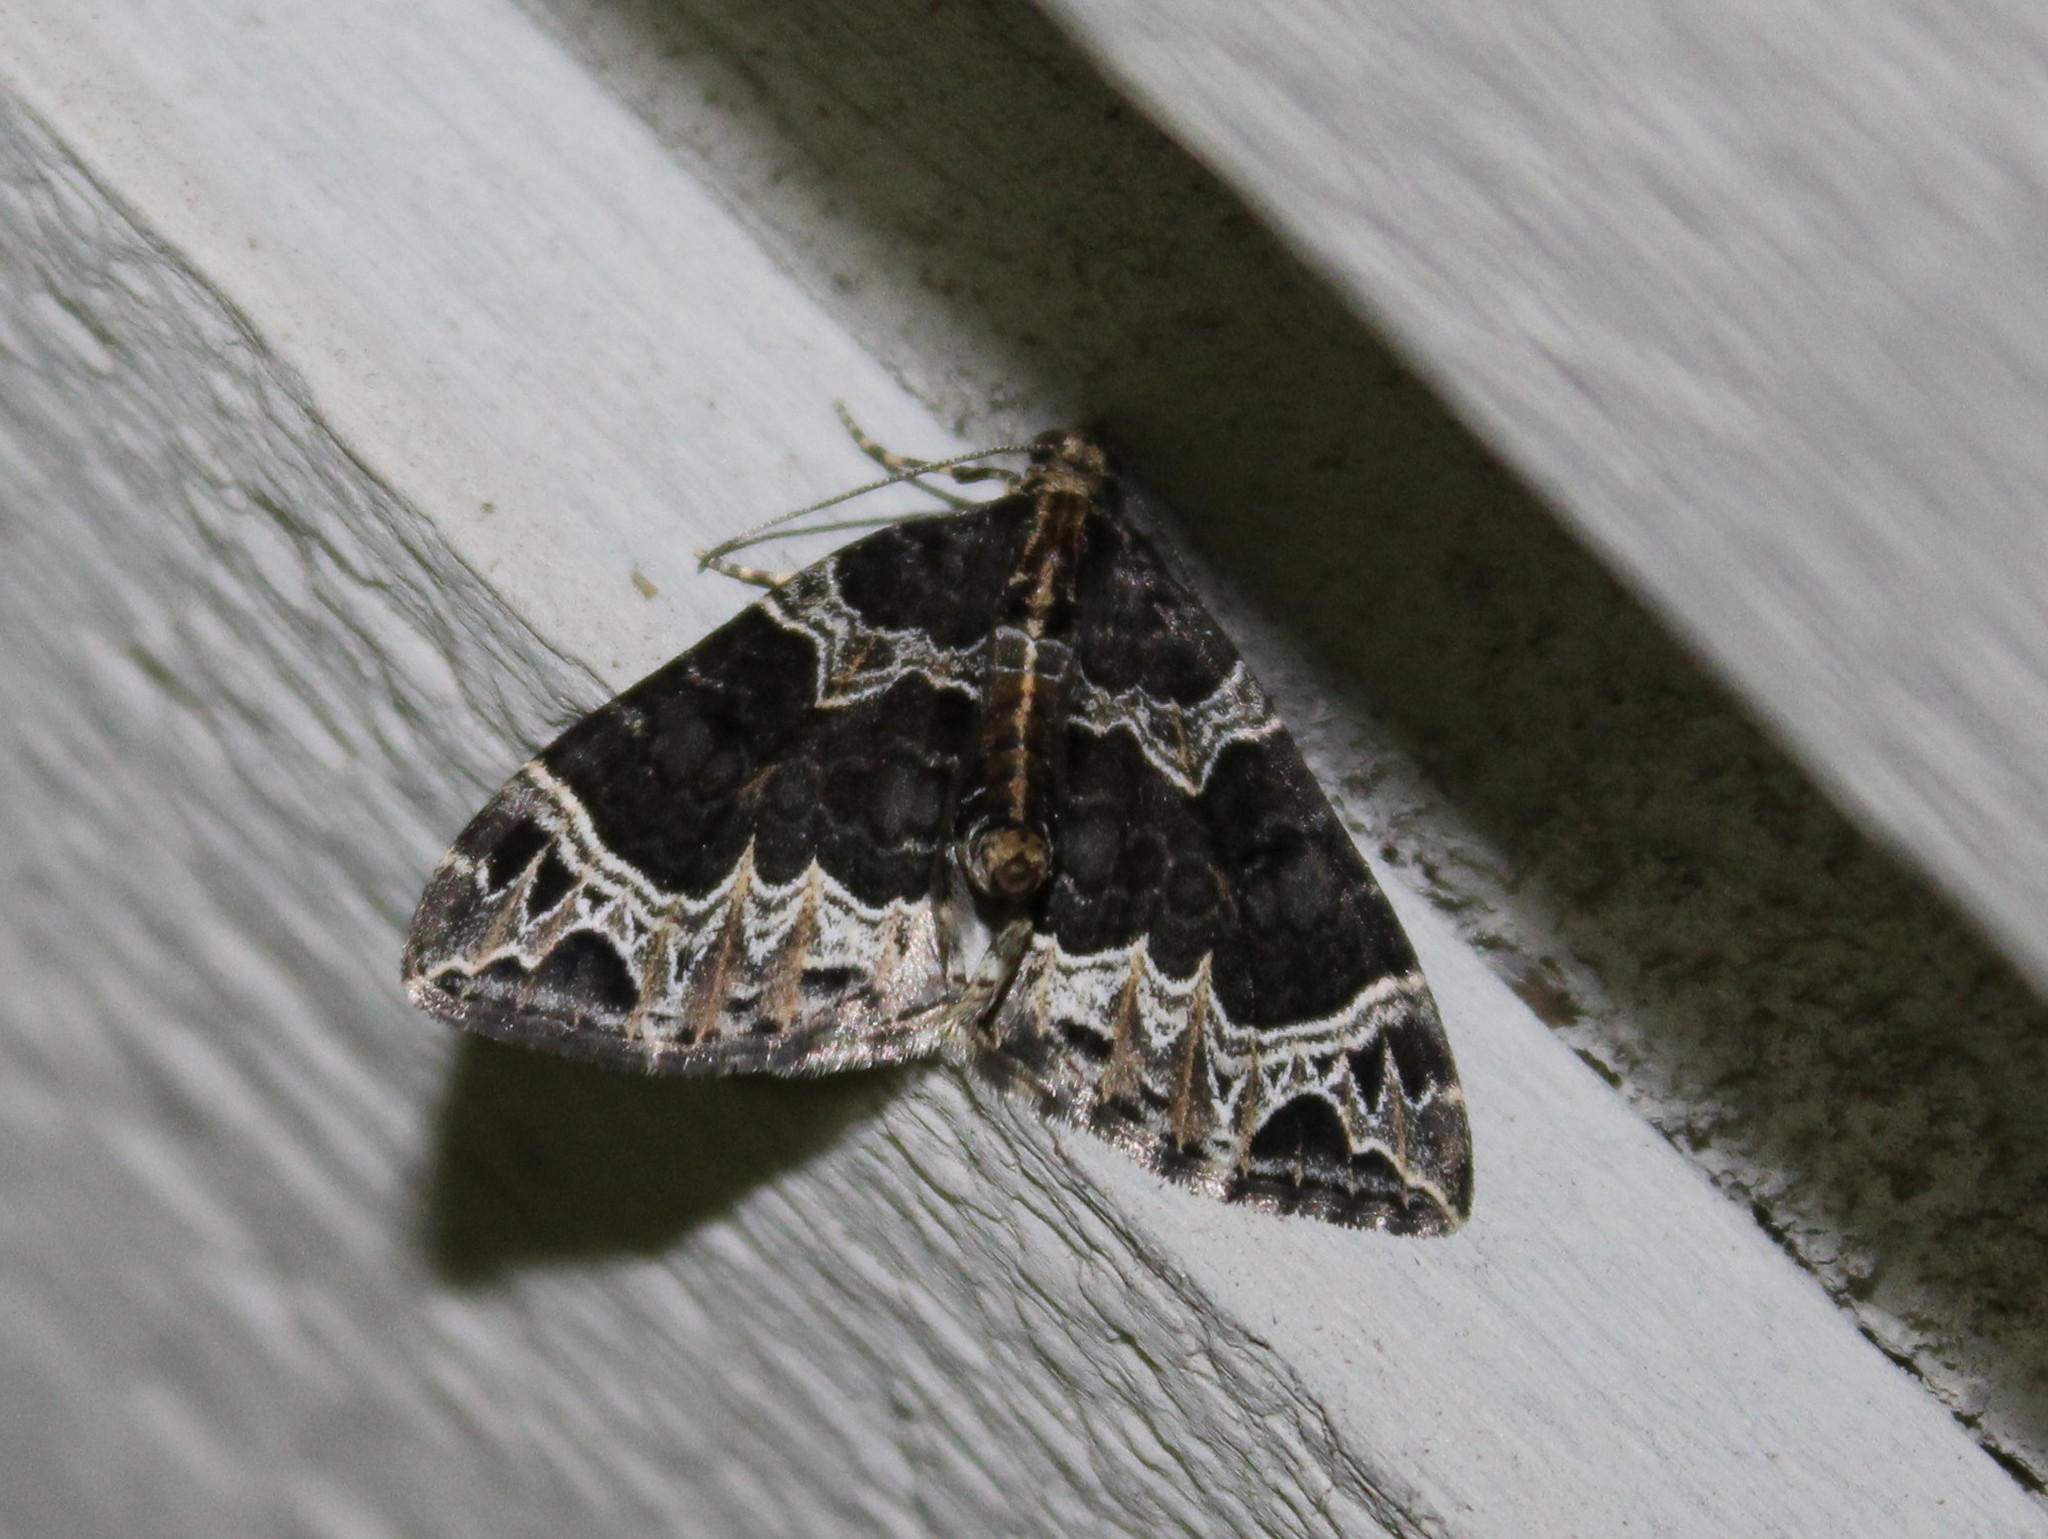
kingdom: Animalia
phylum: Arthropoda
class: Insecta
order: Lepidoptera
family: Geometridae
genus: Ecliptopera
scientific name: Ecliptopera silaceata
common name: Small phoenix
